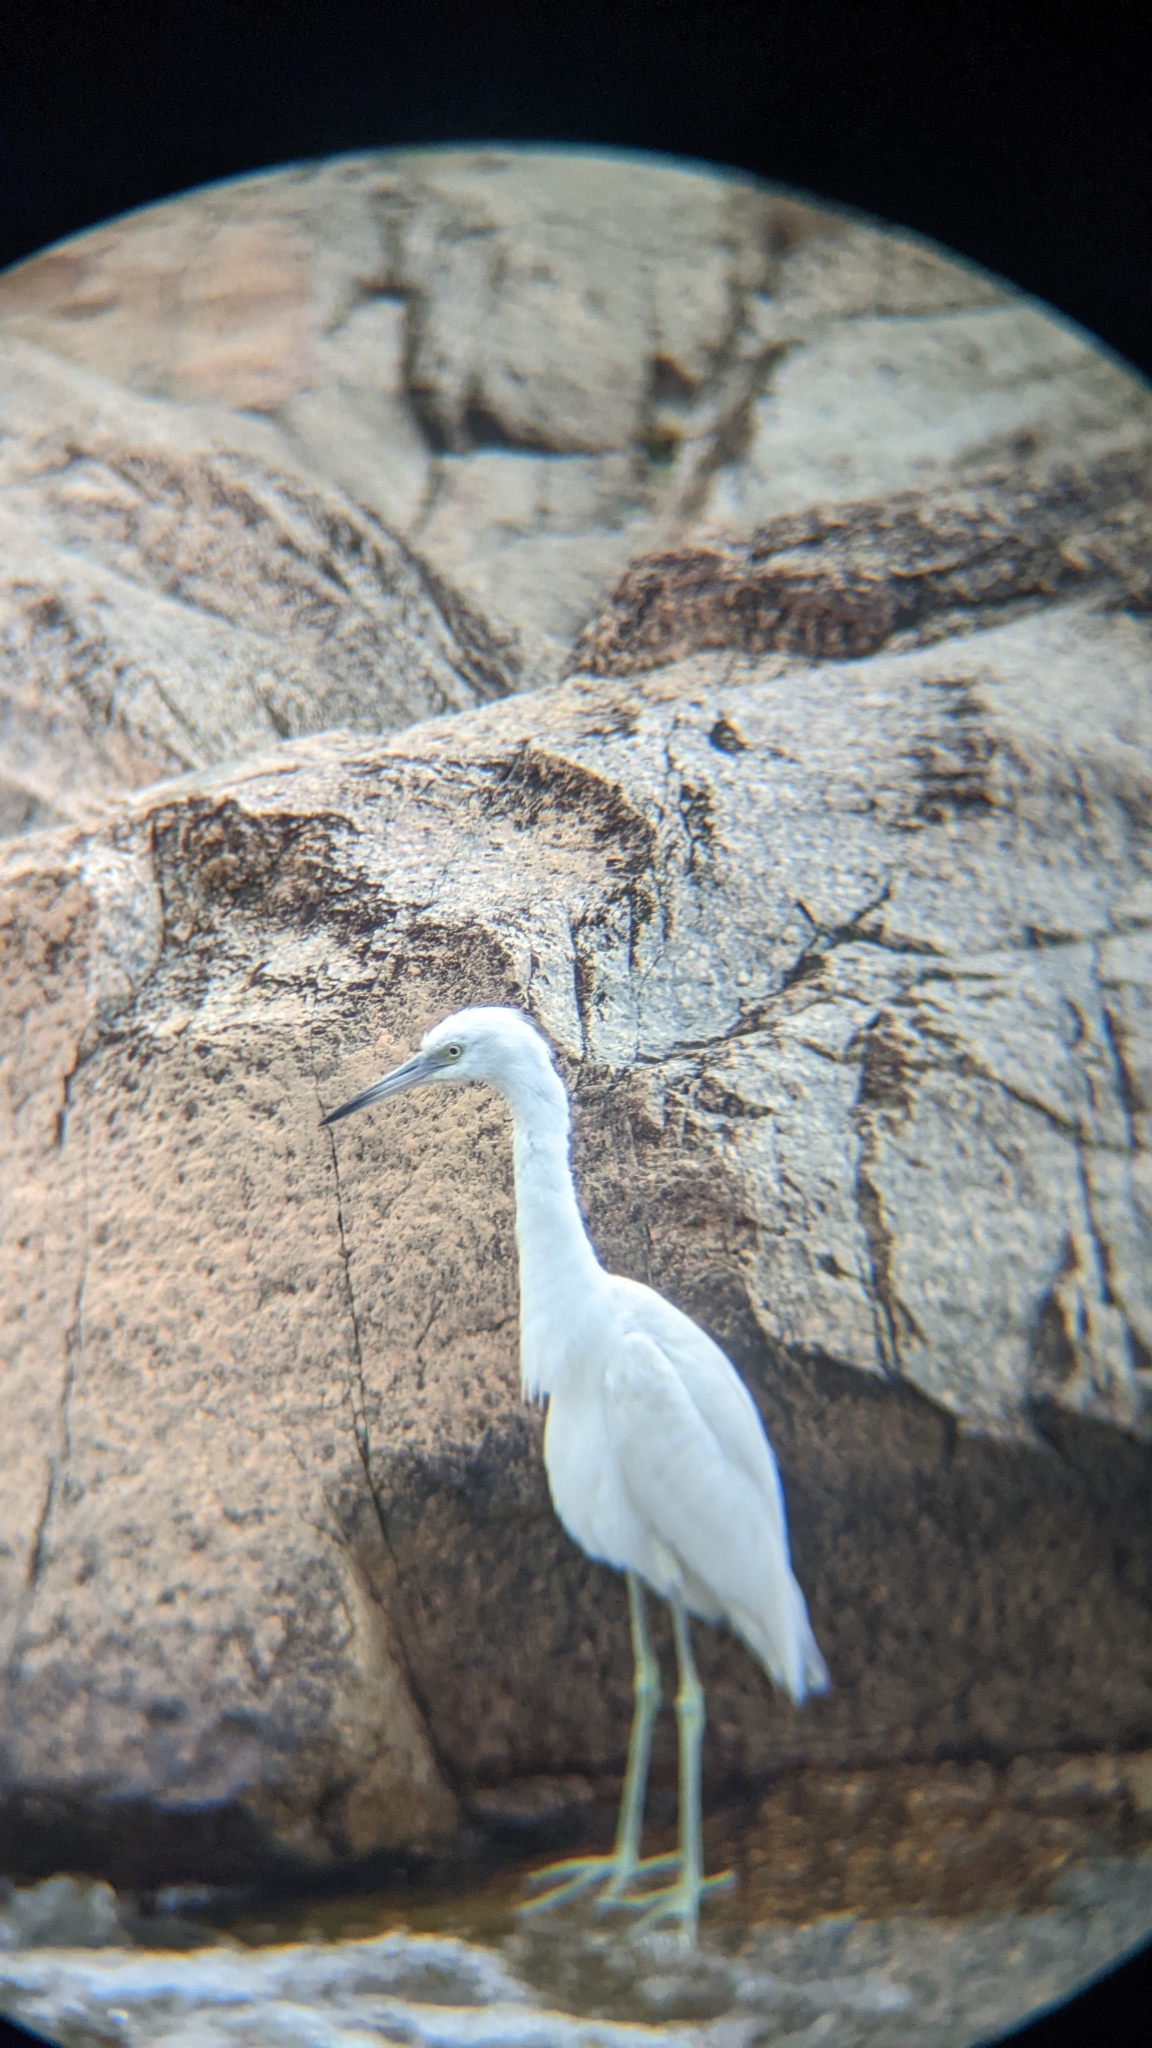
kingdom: Animalia
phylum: Chordata
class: Aves
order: Pelecaniformes
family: Ardeidae
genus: Egretta
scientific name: Egretta caerulea
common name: Little blue heron
